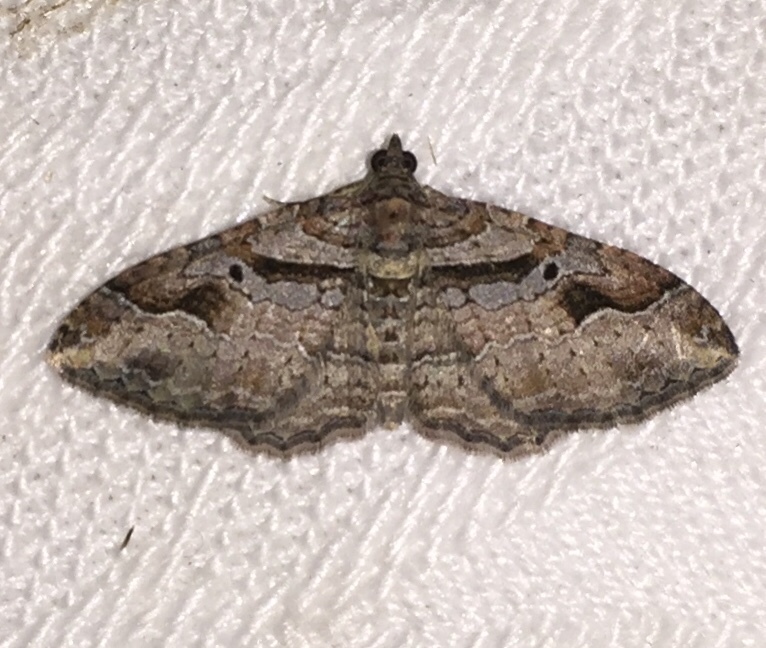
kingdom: Animalia
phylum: Arthropoda
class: Insecta
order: Lepidoptera
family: Geometridae
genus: Costaconvexa
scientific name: Costaconvexa centrostrigaria
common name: Bent-line carpet
